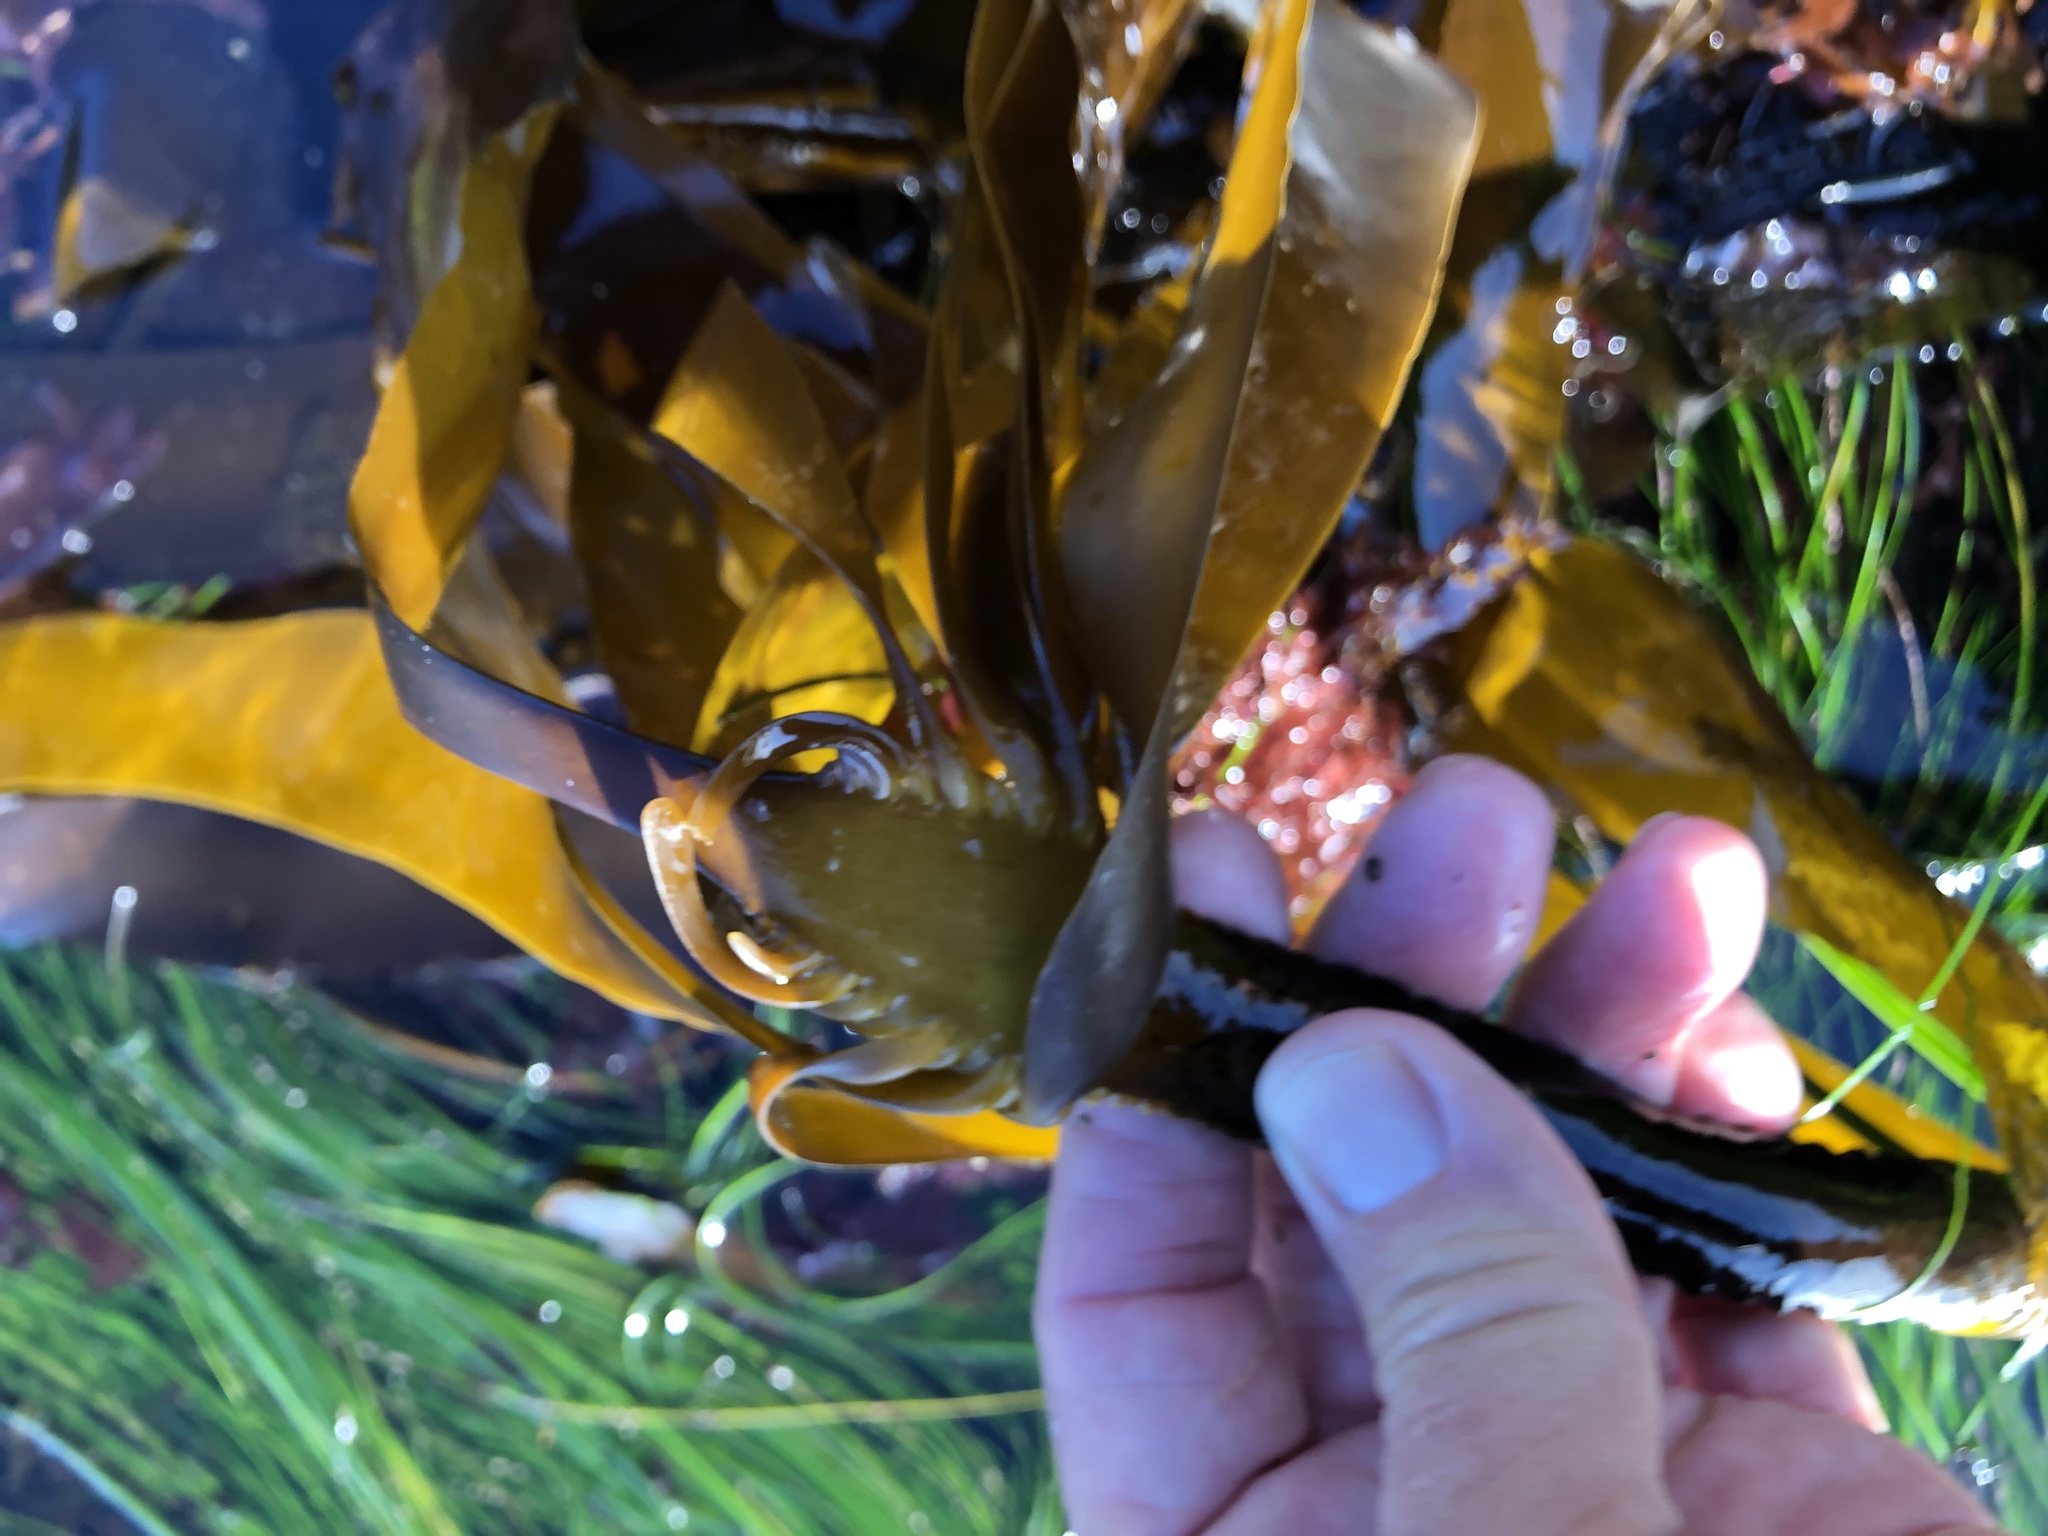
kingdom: Chromista
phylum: Ochrophyta
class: Phaeophyceae
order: Laminariales
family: Alariaceae
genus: Pterygophora
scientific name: Pterygophora californica
